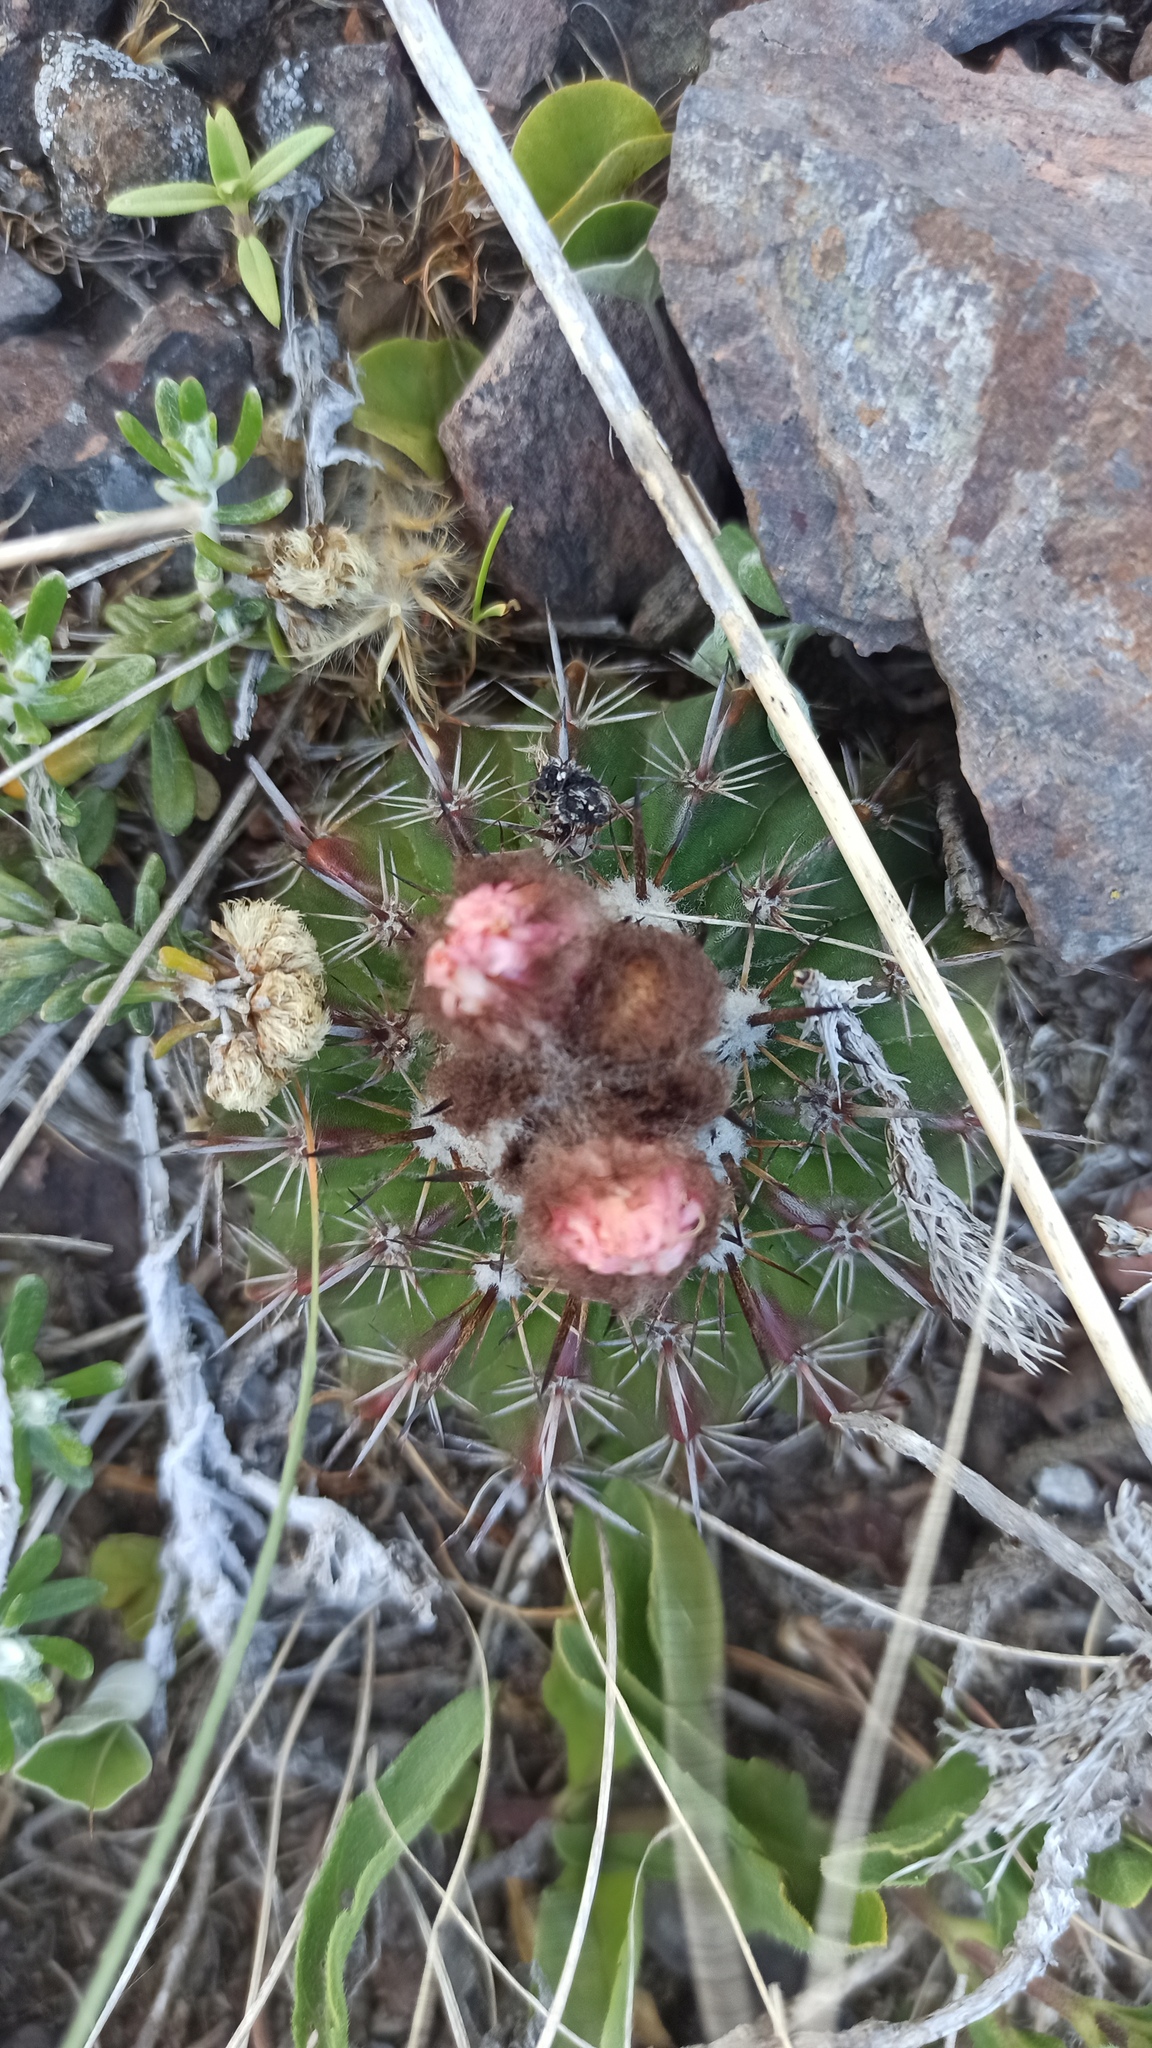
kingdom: Plantae
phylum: Tracheophyta
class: Magnoliopsida
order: Caryophyllales
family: Cactaceae
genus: Parodia
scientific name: Parodia mammulosa
